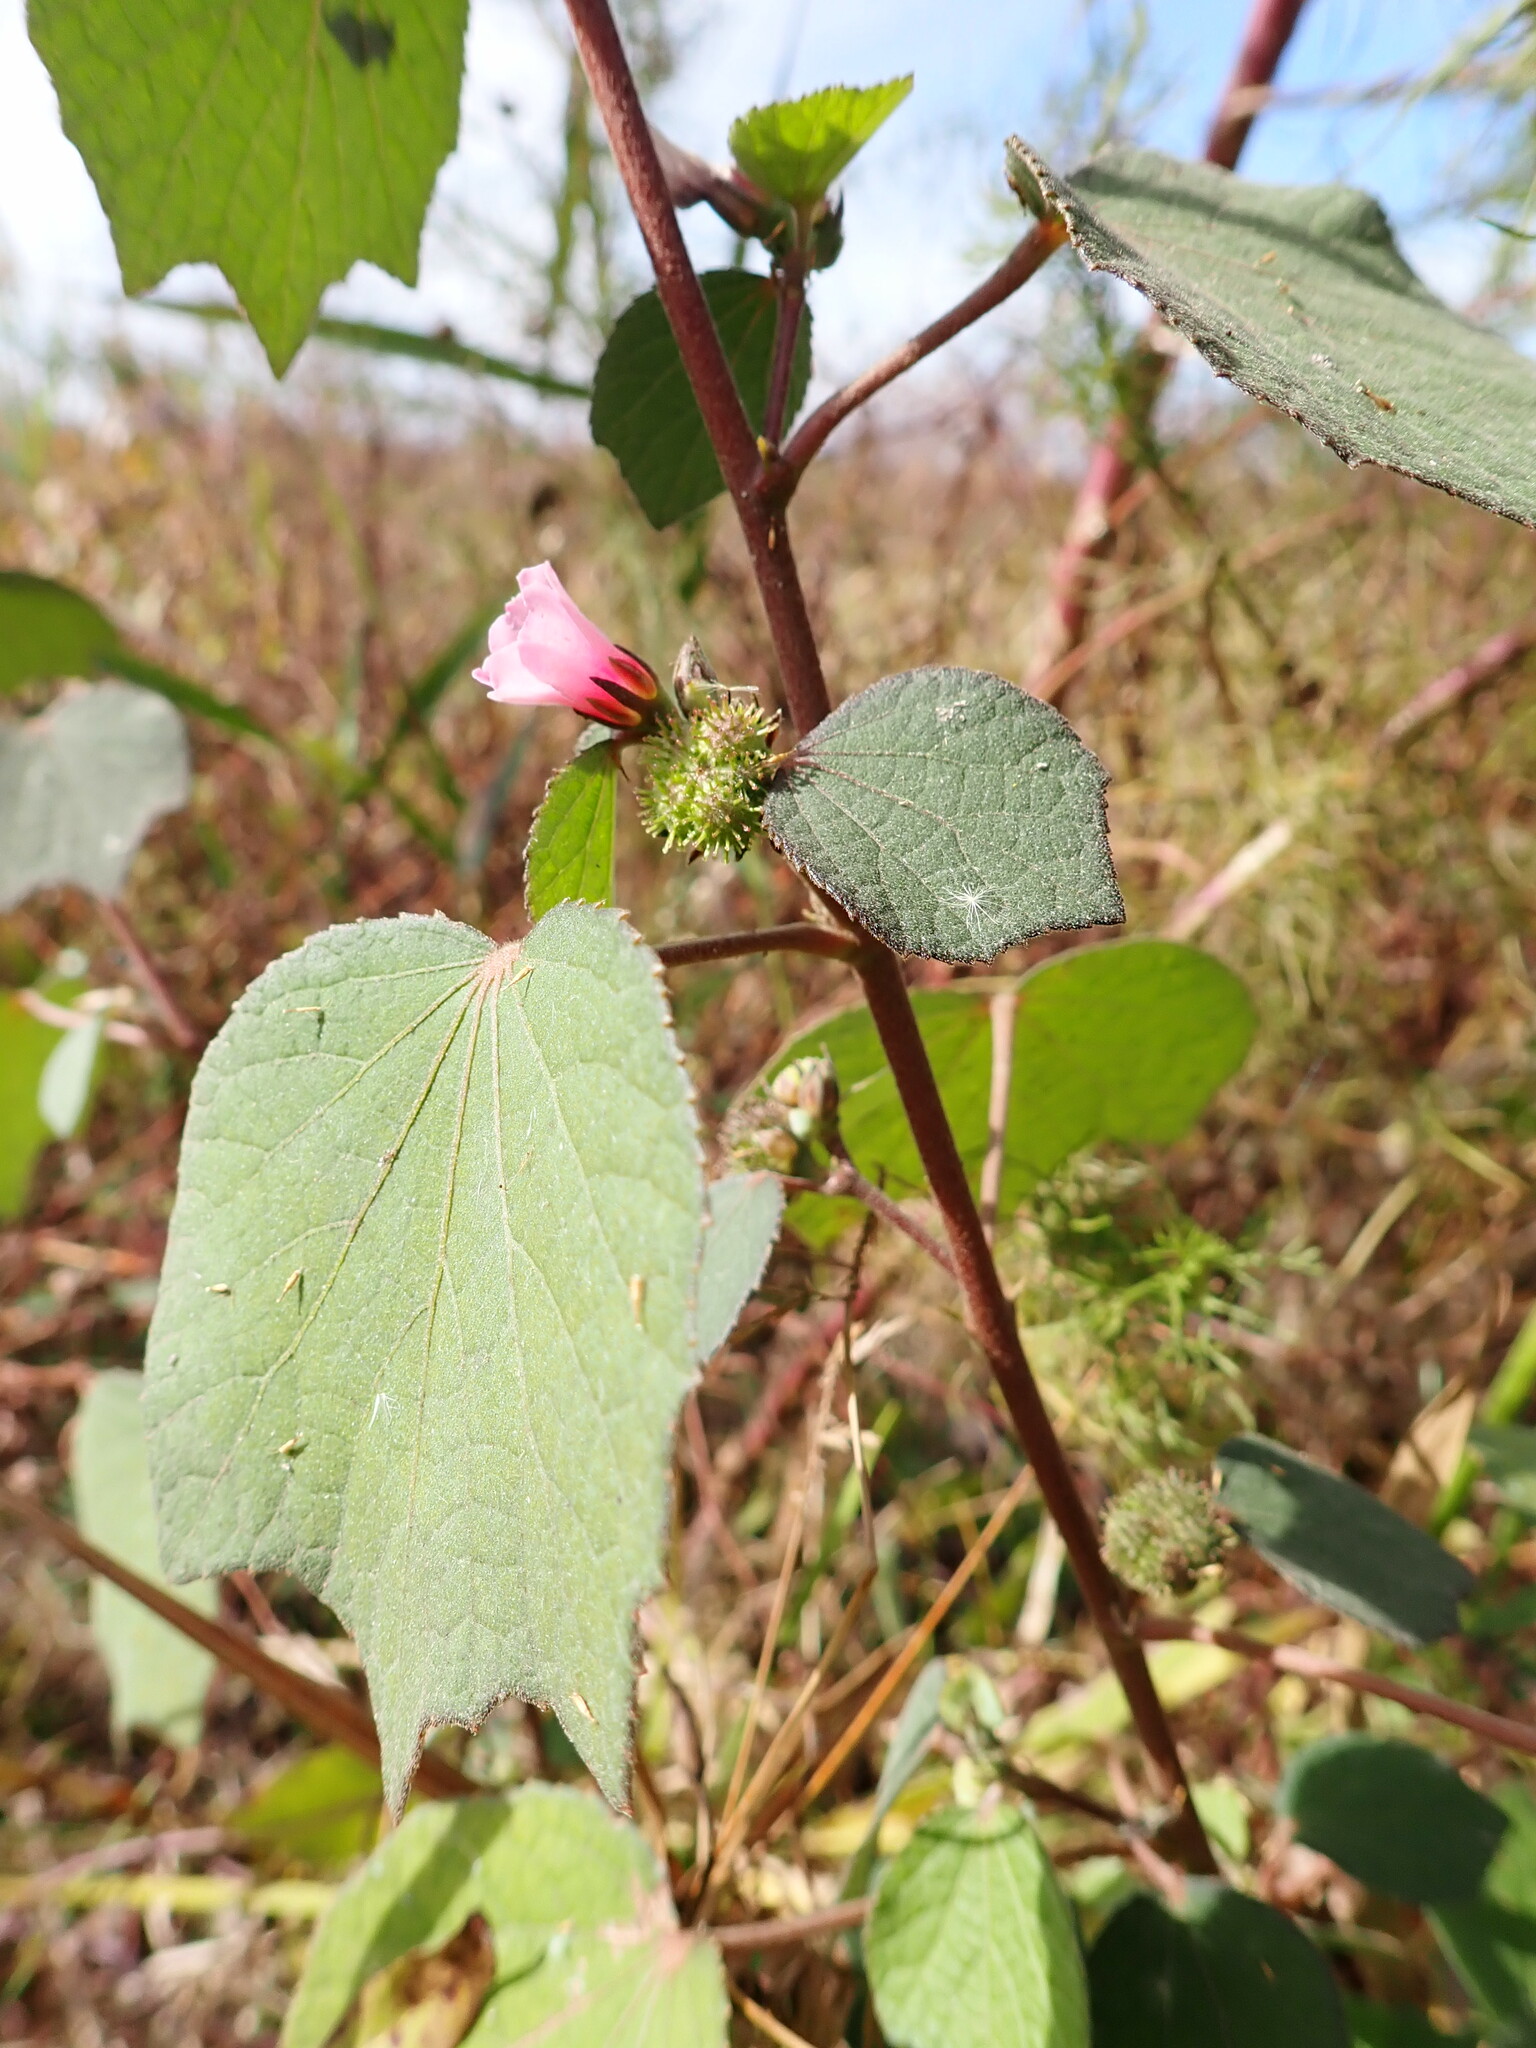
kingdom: Plantae
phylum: Tracheophyta
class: Magnoliopsida
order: Malvales
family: Malvaceae
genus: Urena
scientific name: Urena lobata
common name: Caesarweed
